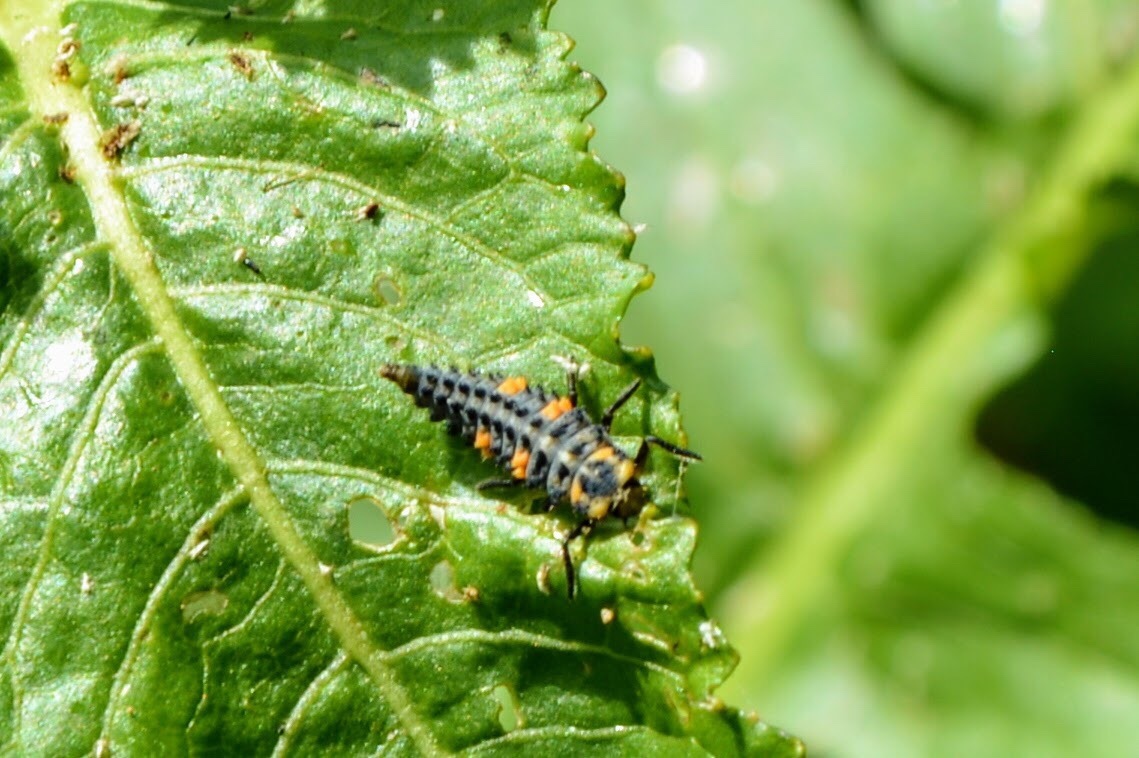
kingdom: Animalia
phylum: Arthropoda
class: Insecta
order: Coleoptera
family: Coccinellidae
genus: Coccinella
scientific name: Coccinella septempunctata
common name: Sevenspotted lady beetle
